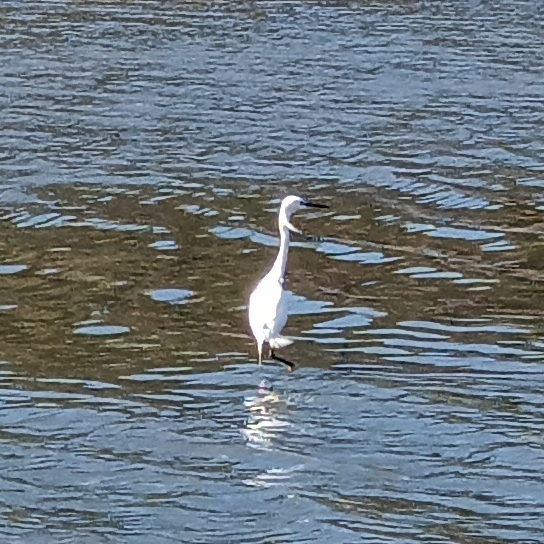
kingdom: Animalia
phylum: Chordata
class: Aves
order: Pelecaniformes
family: Ardeidae
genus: Egretta
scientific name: Egretta thula
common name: Snowy egret
